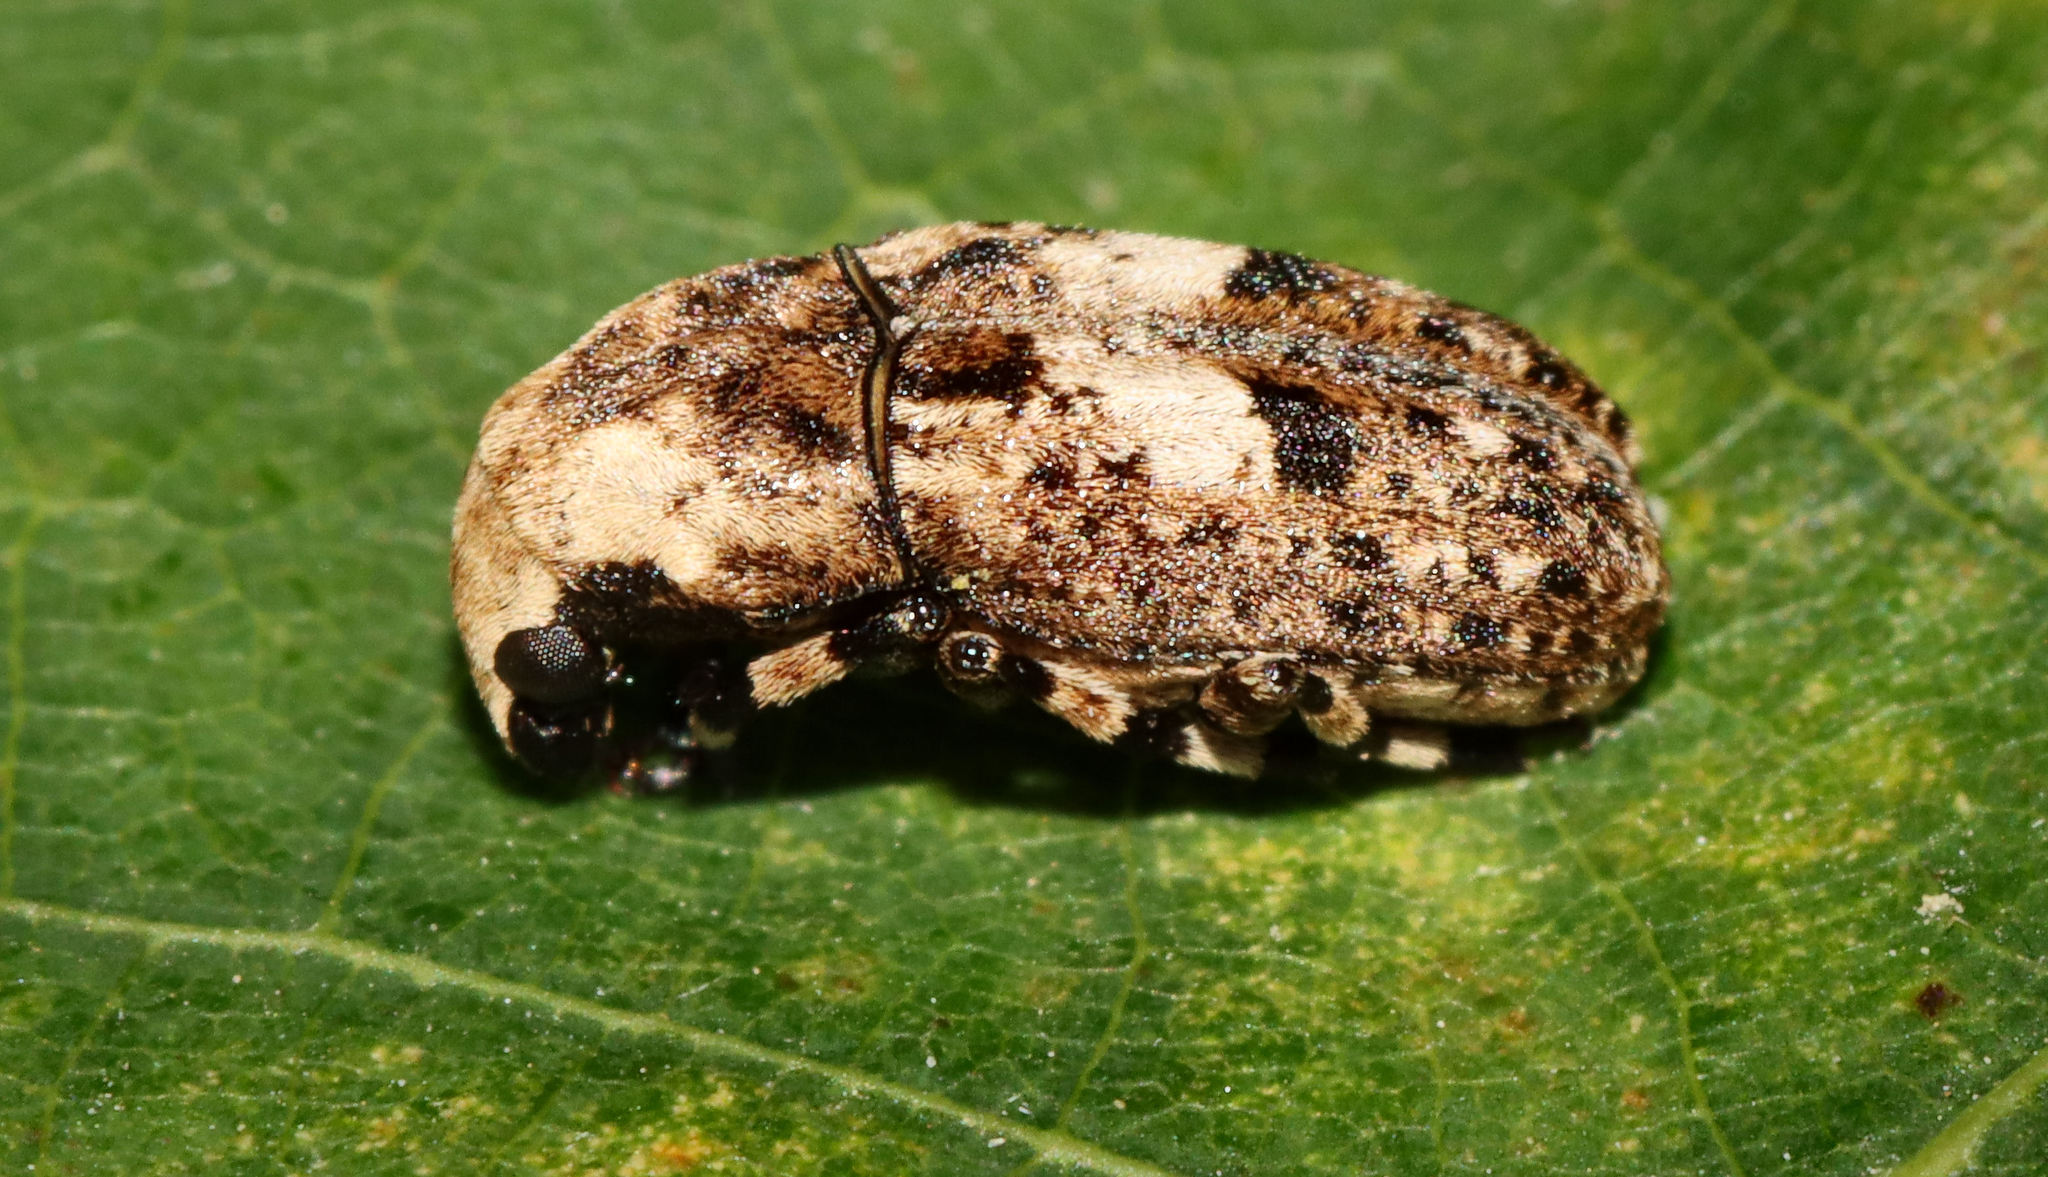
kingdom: Animalia
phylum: Arthropoda
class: Insecta
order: Coleoptera
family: Anthribidae
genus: Euparius
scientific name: Euparius marmoreus
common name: Marbled fungus weevil
